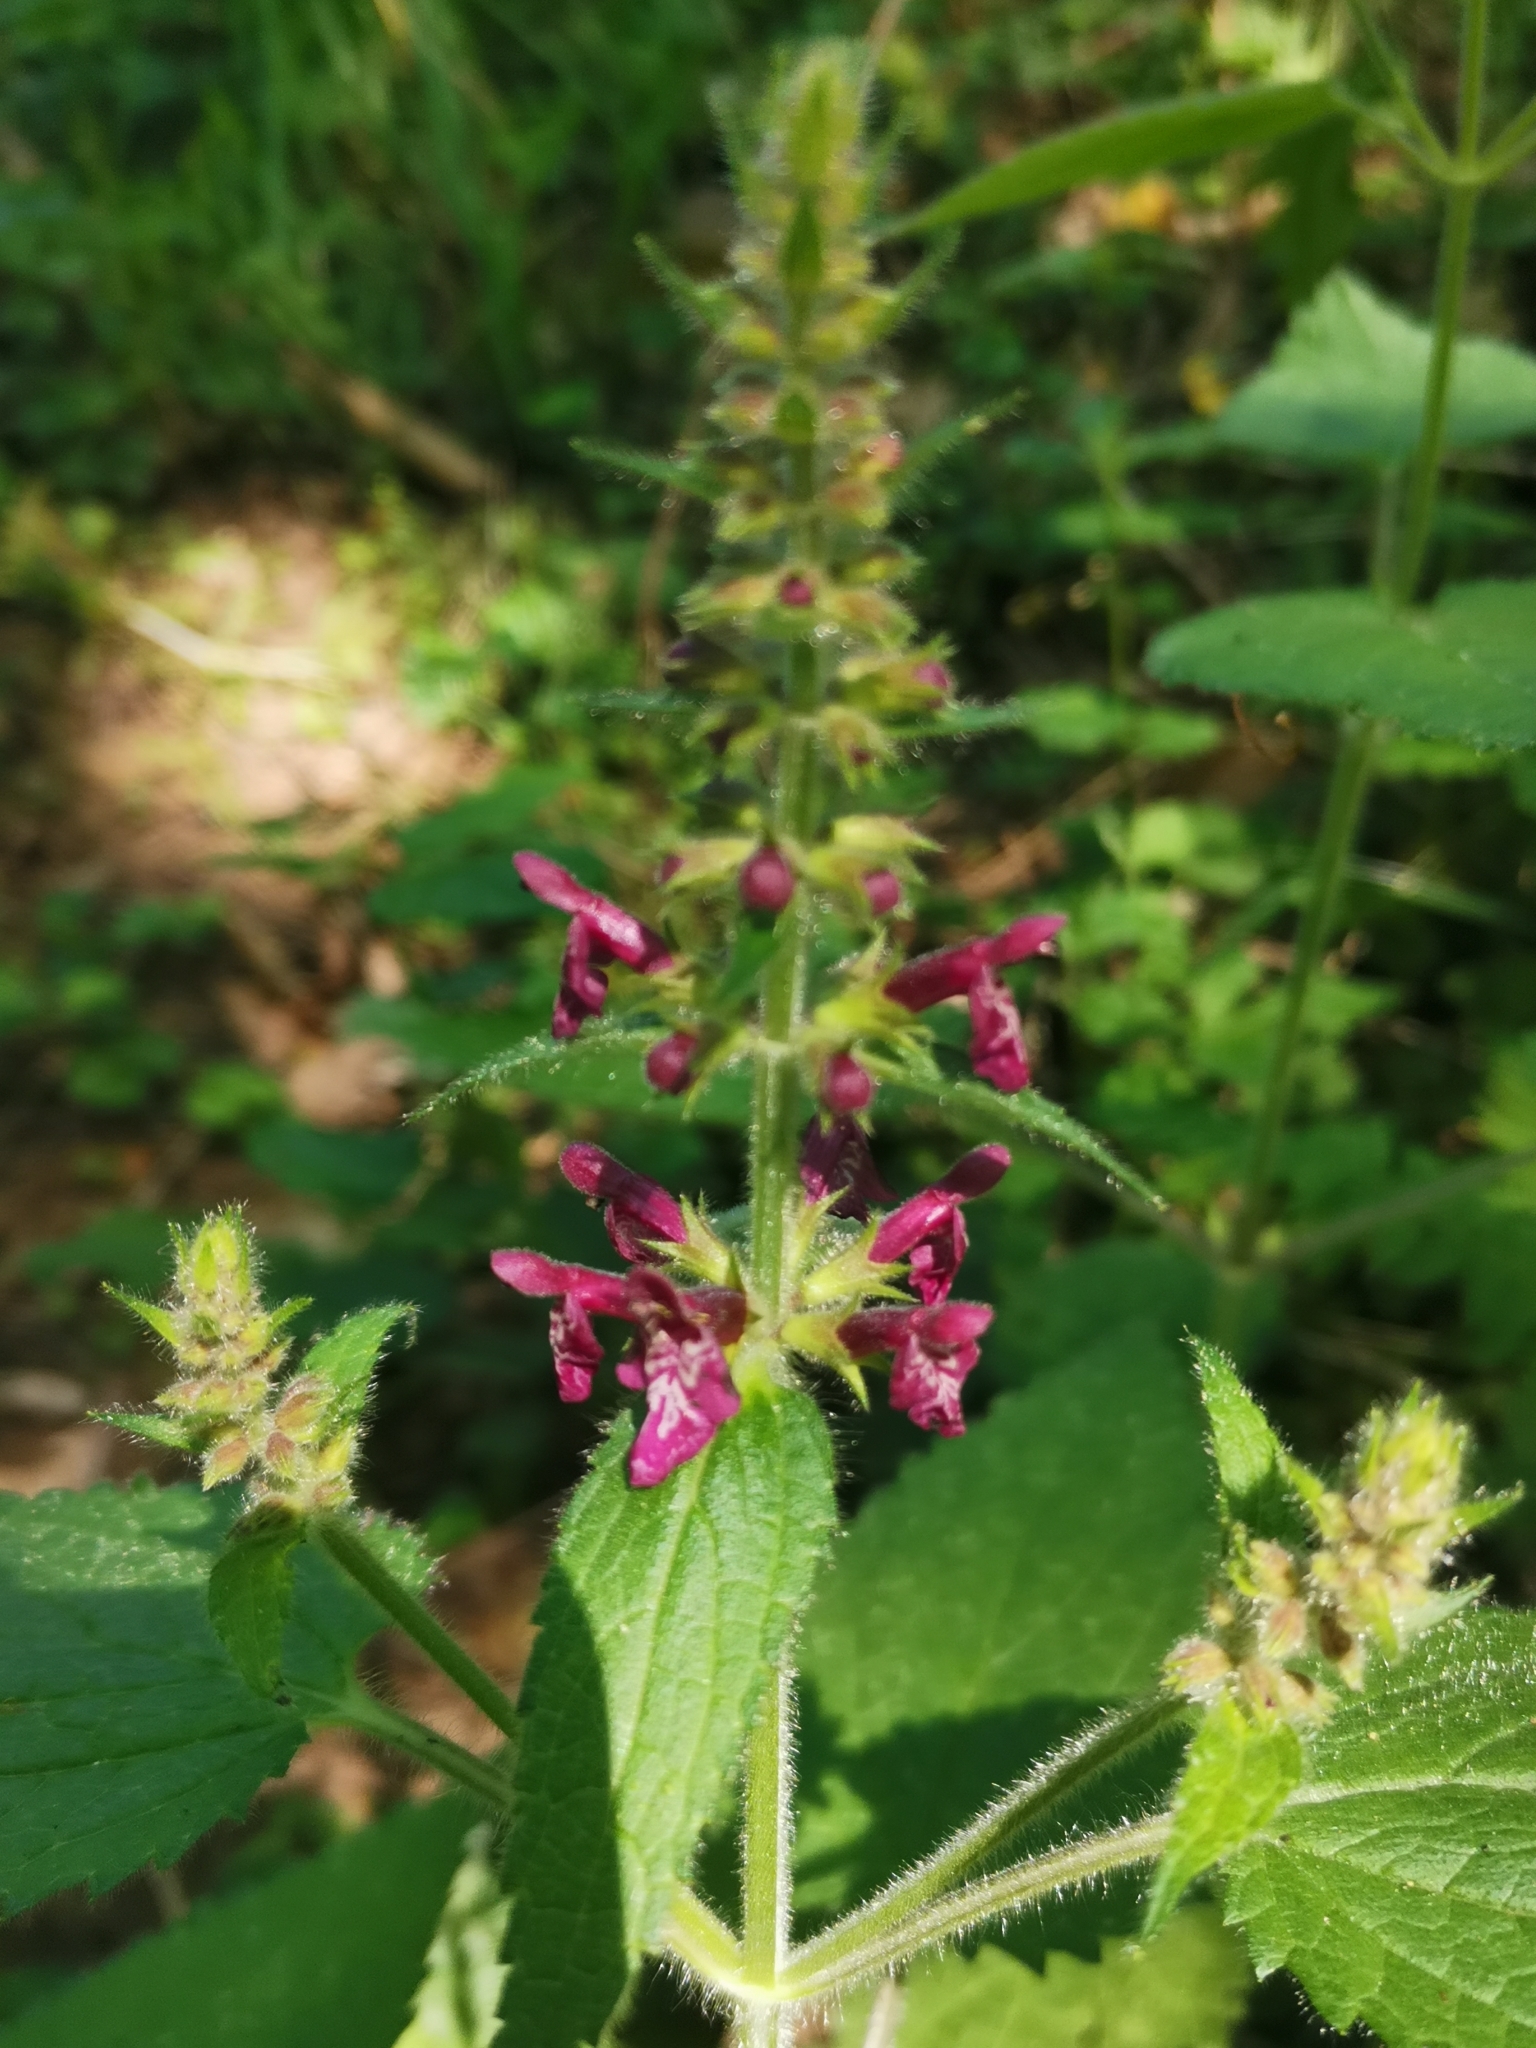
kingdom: Plantae
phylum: Tracheophyta
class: Magnoliopsida
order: Lamiales
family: Lamiaceae
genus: Stachys
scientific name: Stachys sylvatica
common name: Hedge woundwort
